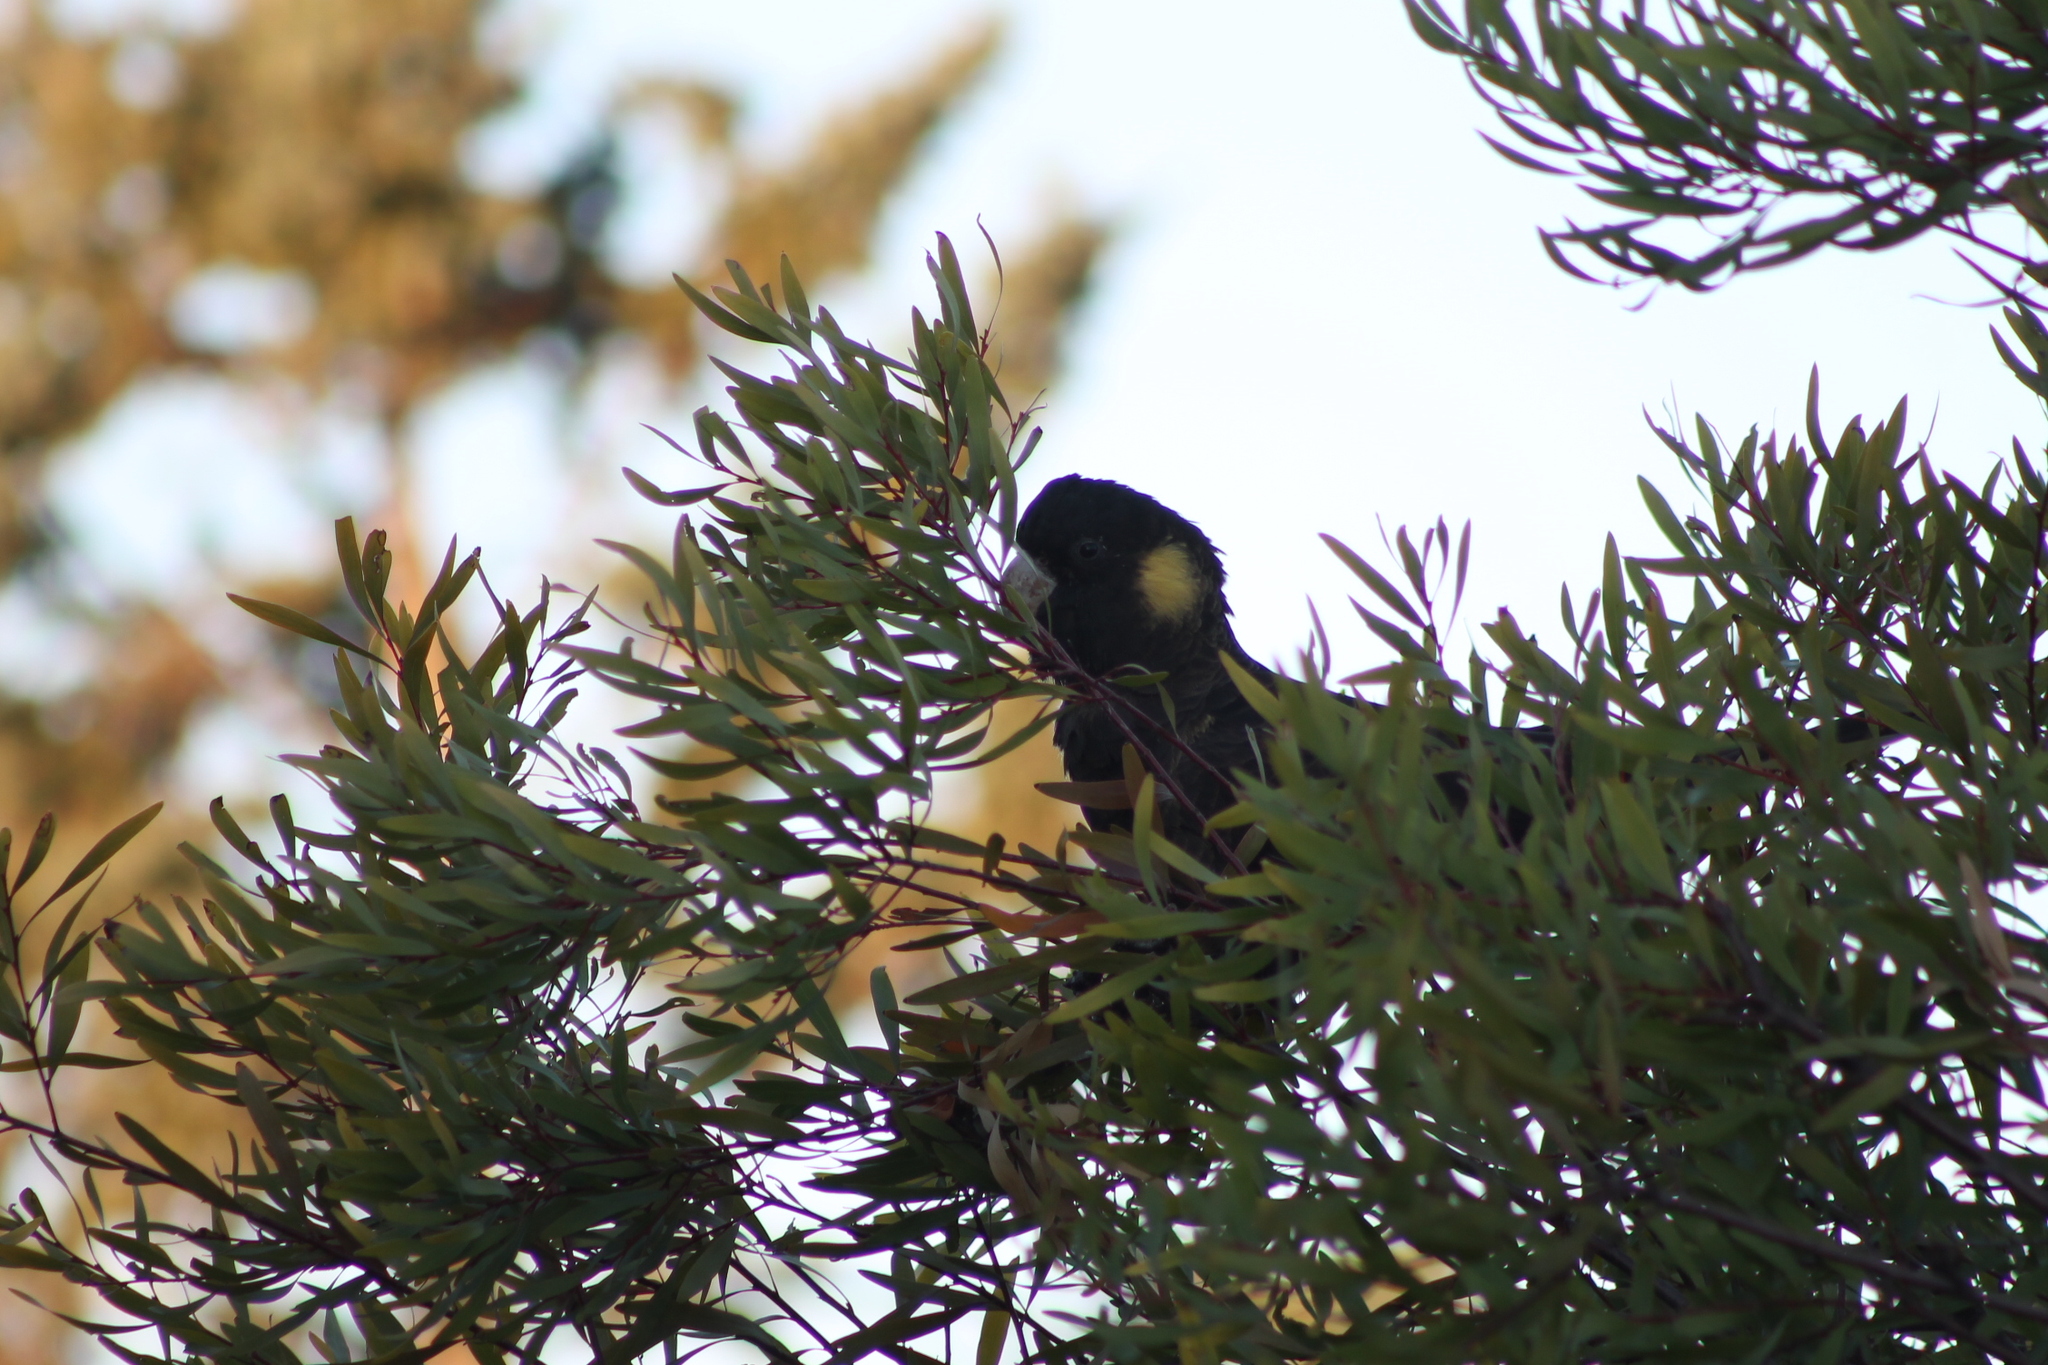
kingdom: Animalia
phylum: Chordata
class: Aves
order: Psittaciformes
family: Cacatuidae
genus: Zanda
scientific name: Zanda funerea
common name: Yellow-tailed black-cockatoo
